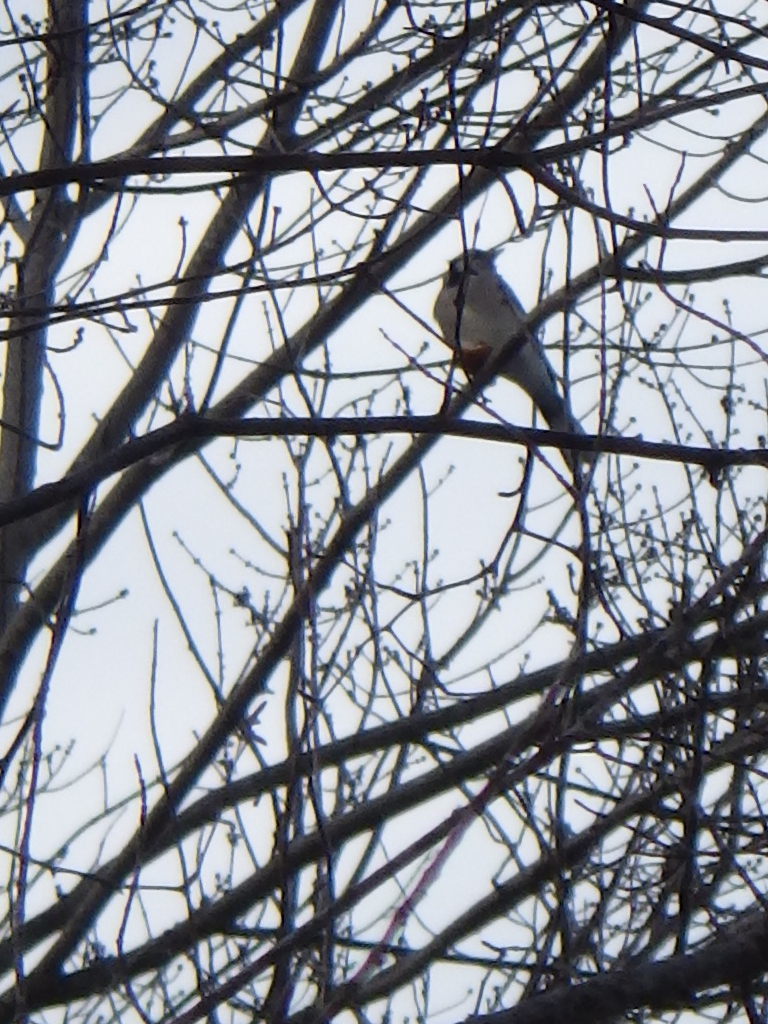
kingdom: Animalia
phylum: Chordata
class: Aves
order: Passeriformes
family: Corvidae
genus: Cyanocitta
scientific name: Cyanocitta cristata
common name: Blue jay
